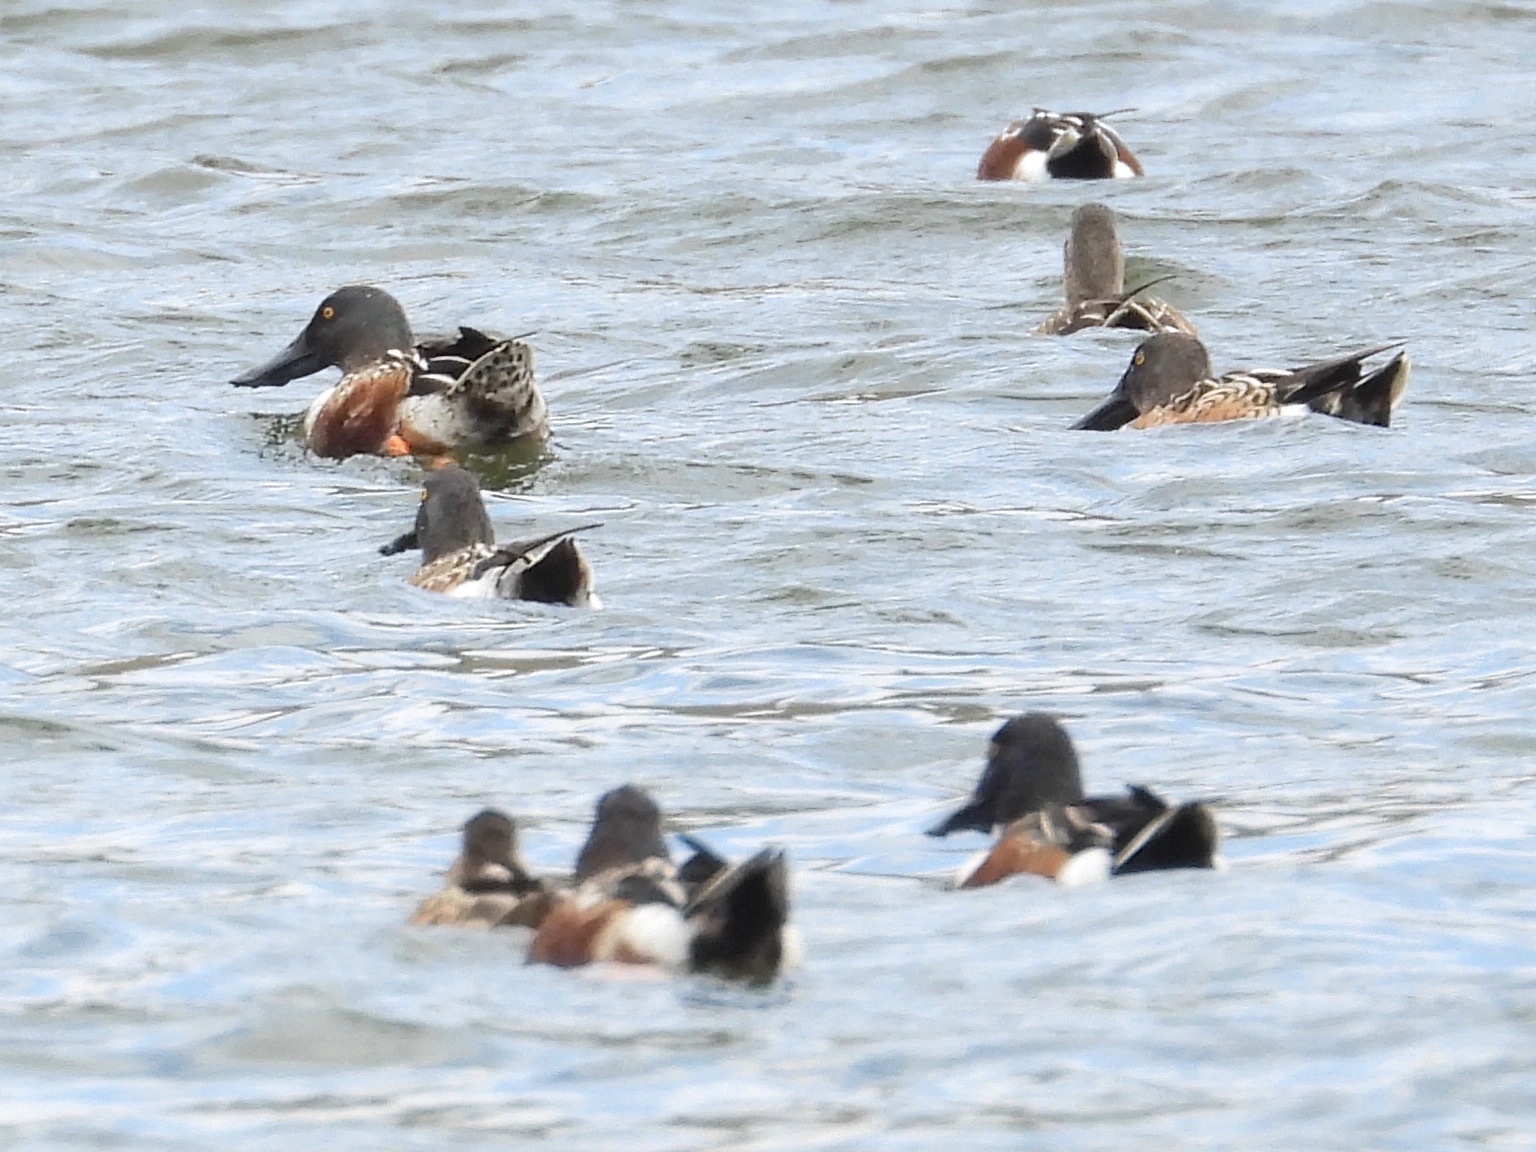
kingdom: Animalia
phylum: Chordata
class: Aves
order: Anseriformes
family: Anatidae
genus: Spatula
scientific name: Spatula clypeata
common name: Northern shoveler
